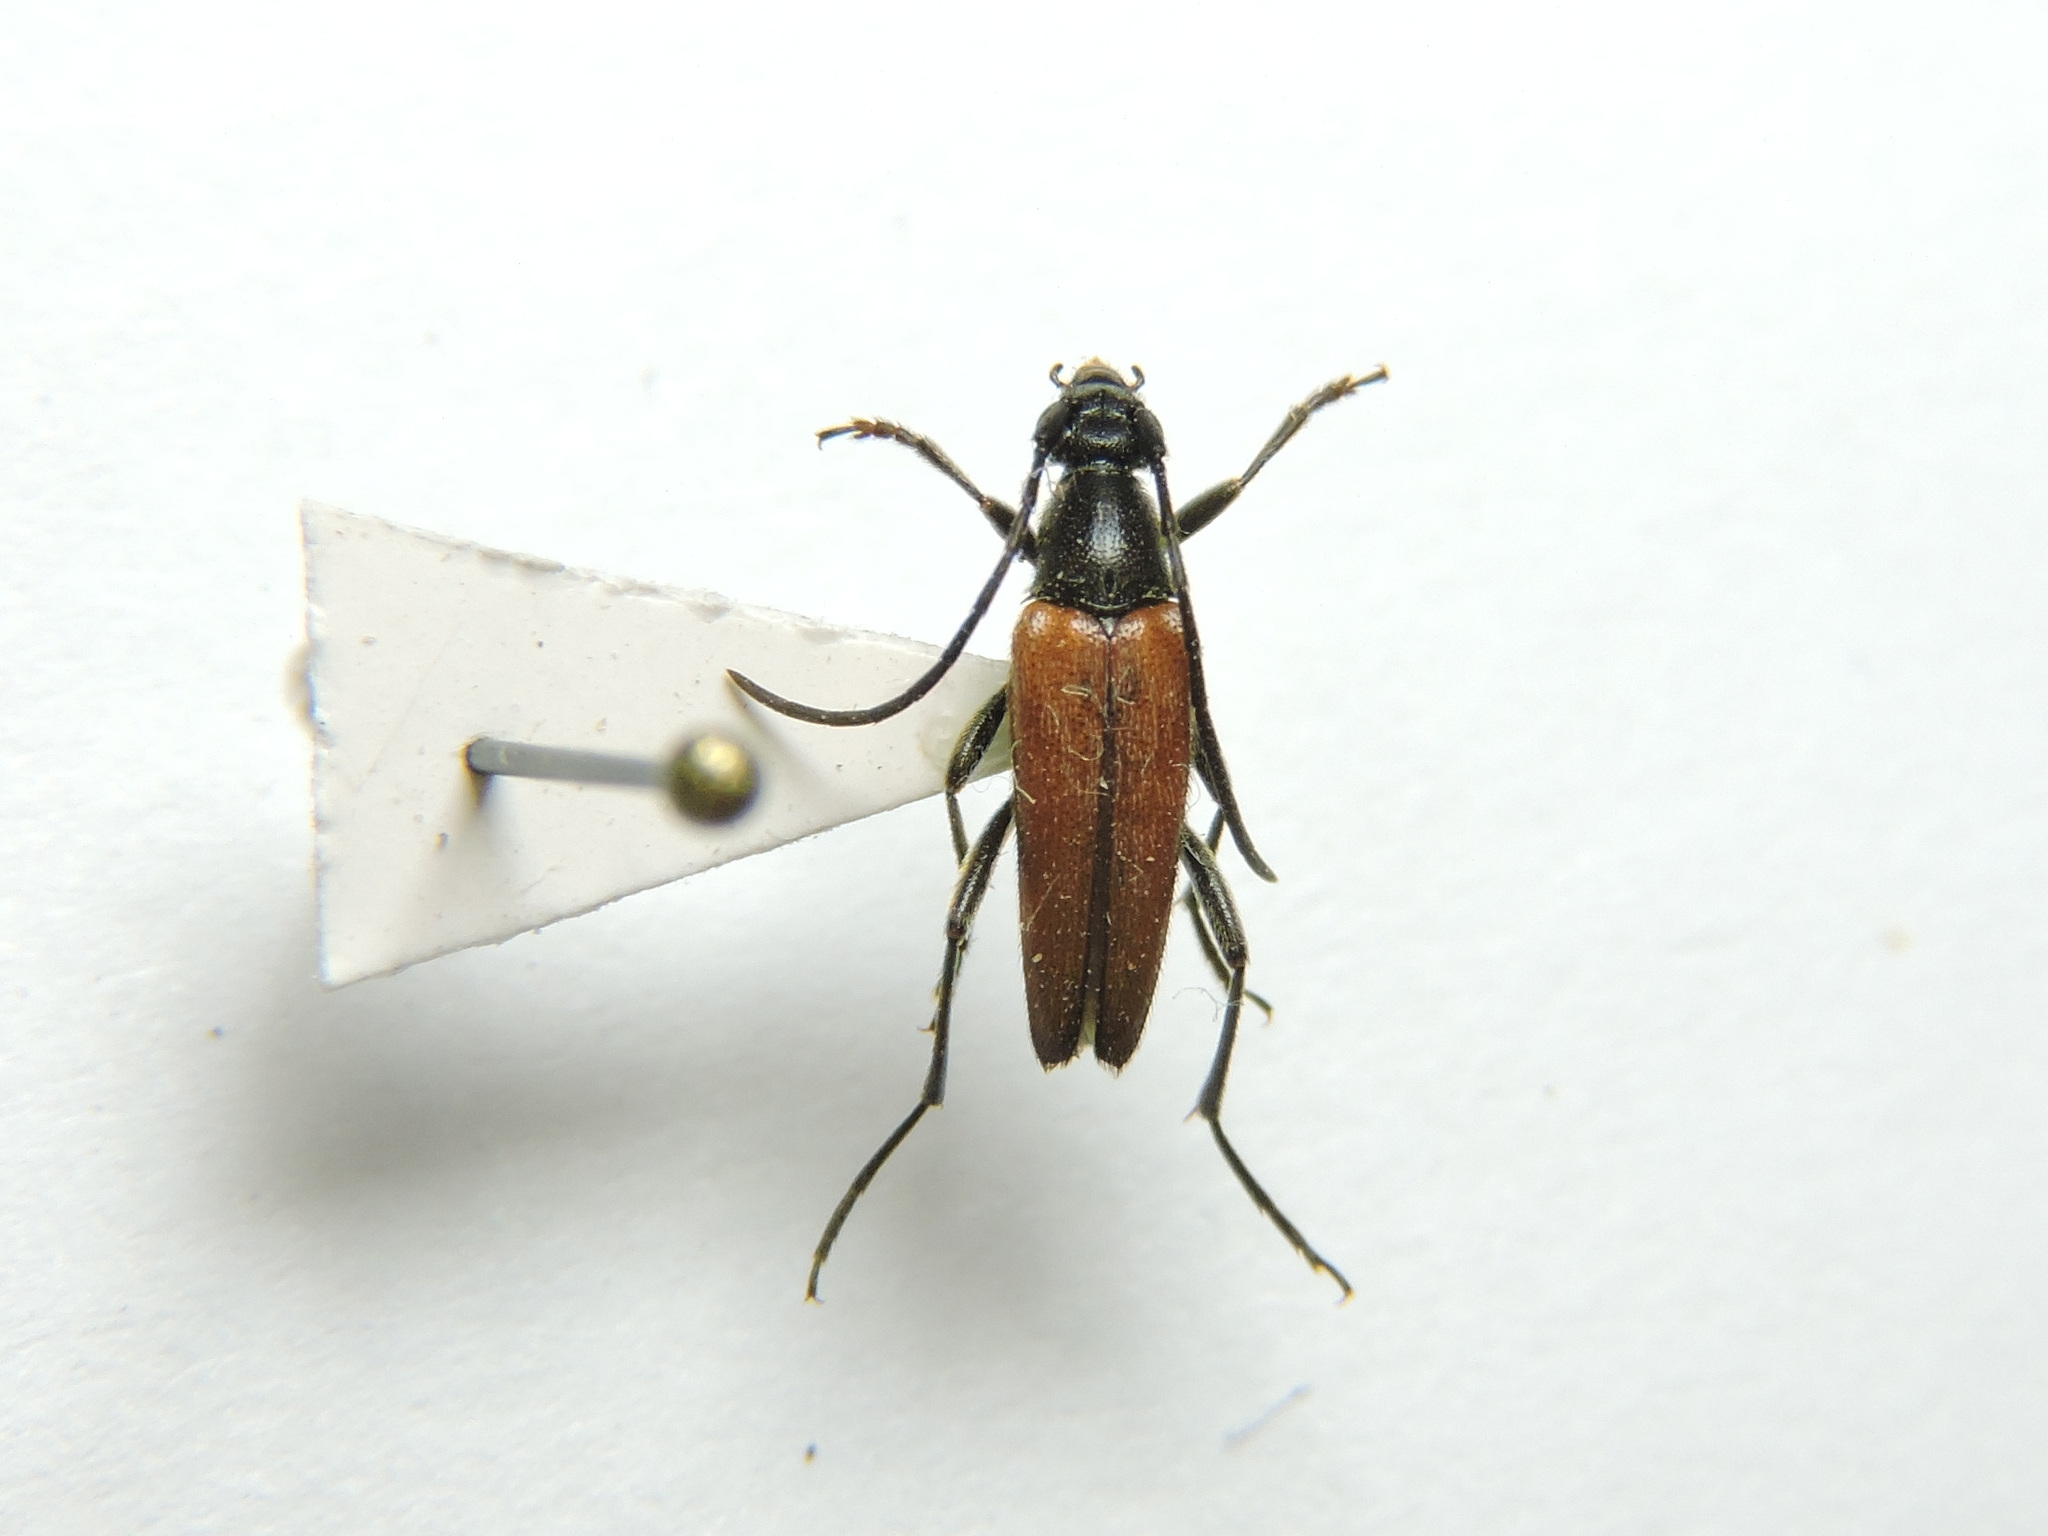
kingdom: Animalia
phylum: Arthropoda
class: Insecta
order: Coleoptera
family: Cerambycidae
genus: Stenurella
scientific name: Stenurella bifasciata
